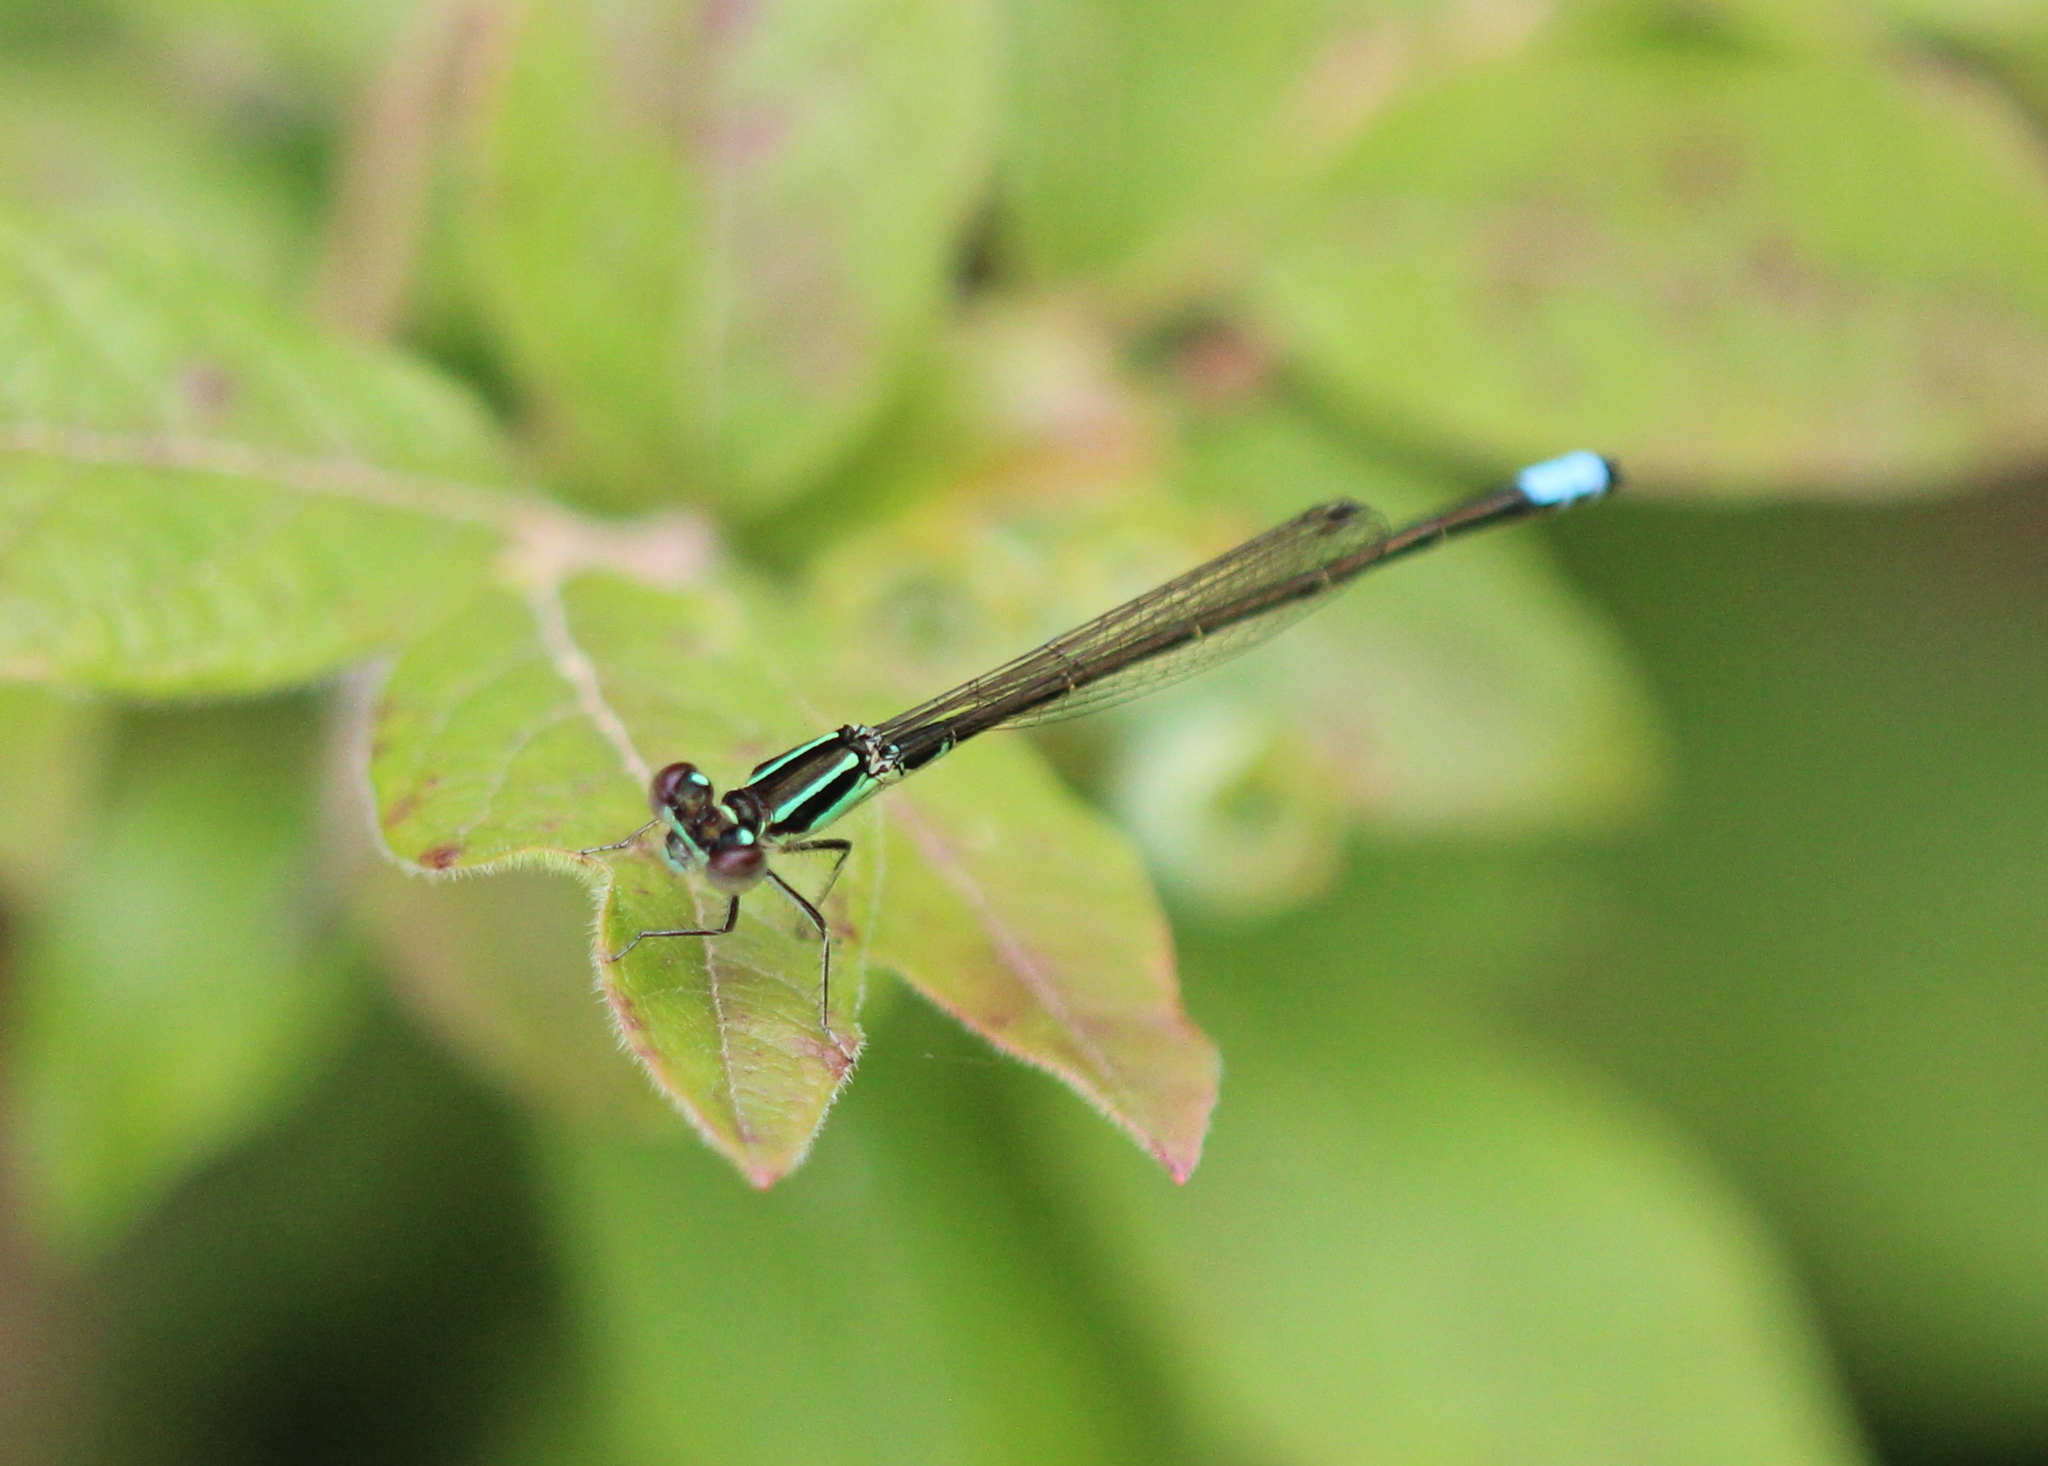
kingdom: Animalia
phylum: Arthropoda
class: Insecta
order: Odonata
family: Coenagrionidae
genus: Ischnura
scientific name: Ischnura verticalis
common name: Eastern forktail
